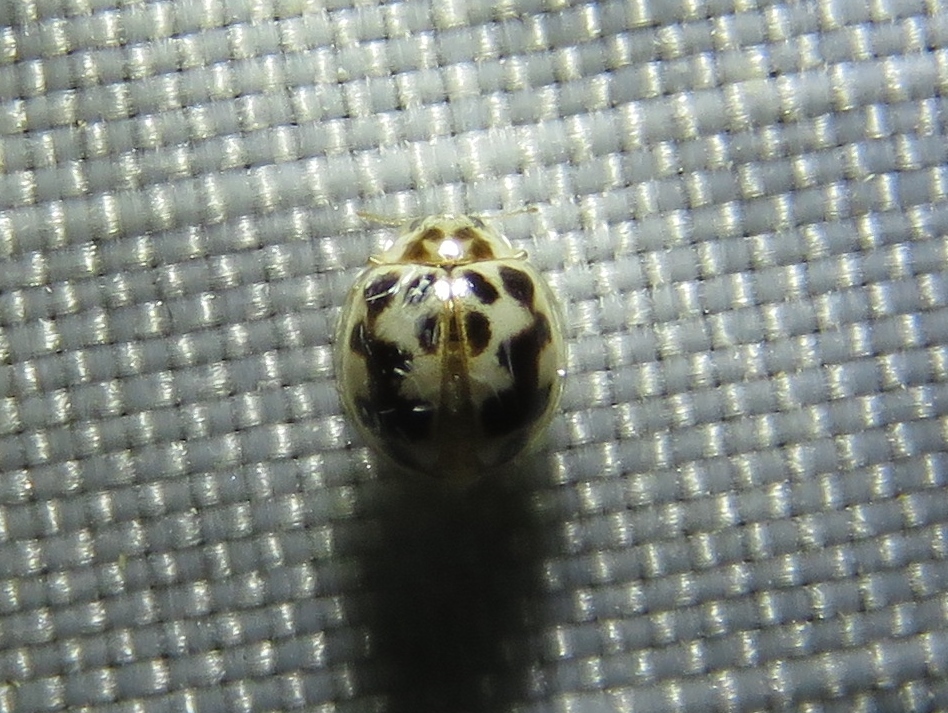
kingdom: Animalia
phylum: Arthropoda
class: Insecta
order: Coleoptera
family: Coccinellidae
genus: Psyllobora
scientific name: Psyllobora vigintimaculata
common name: Ladybird beetle
